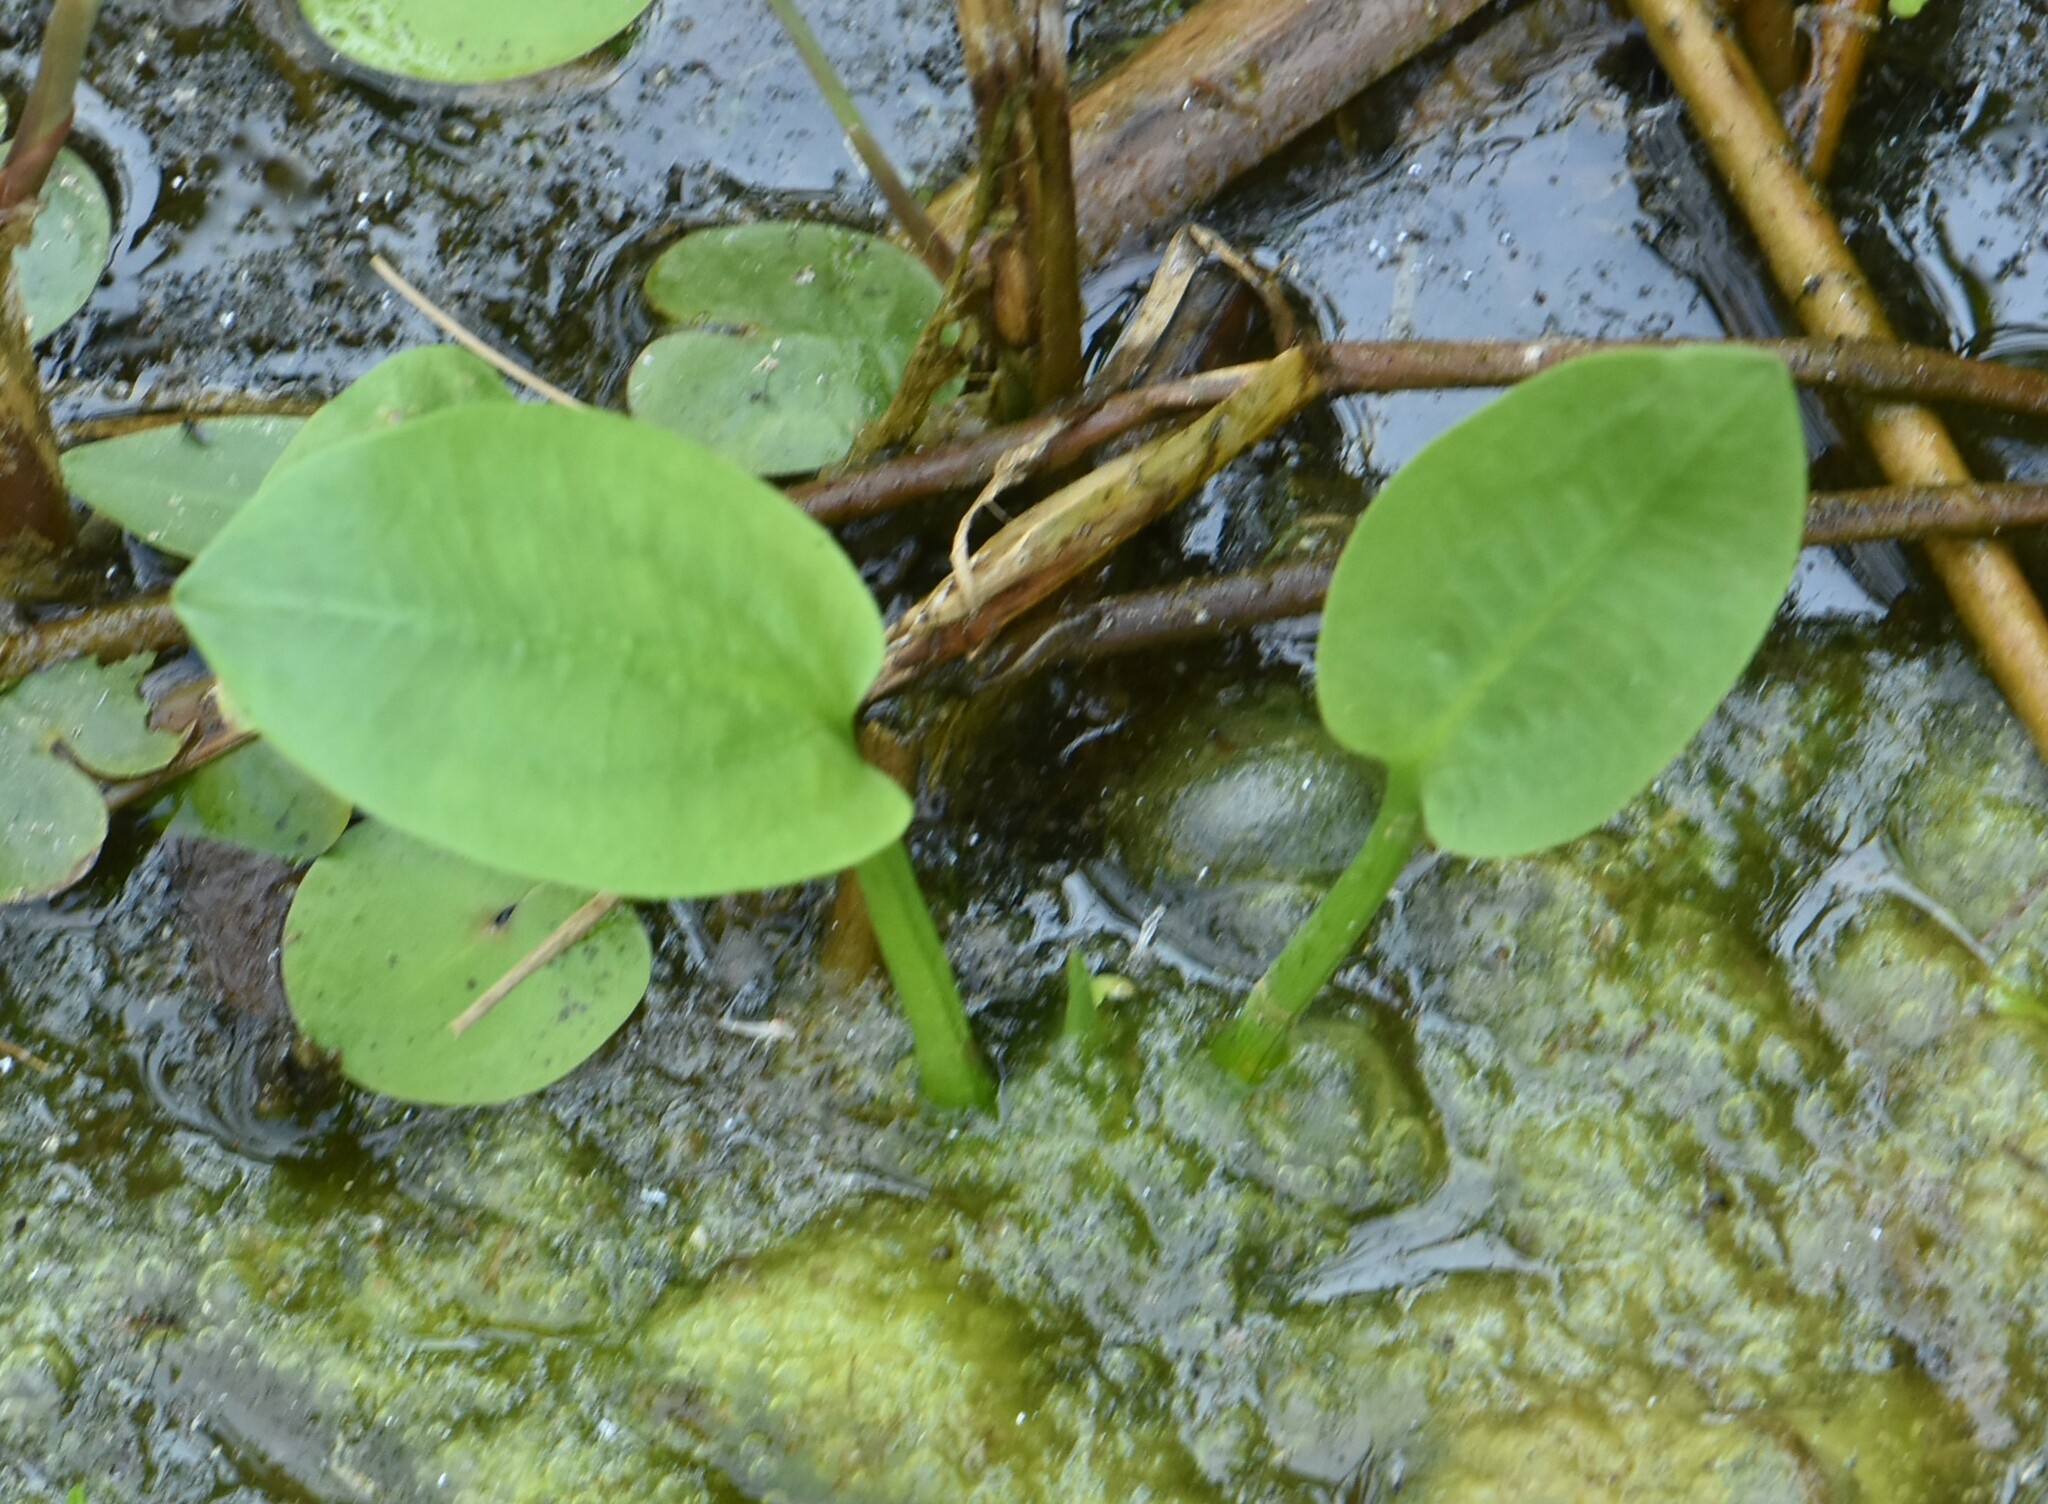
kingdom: Plantae
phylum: Tracheophyta
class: Liliopsida
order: Alismatales
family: Alismataceae
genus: Alisma
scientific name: Alisma plantago-aquatica
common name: Water-plantain
